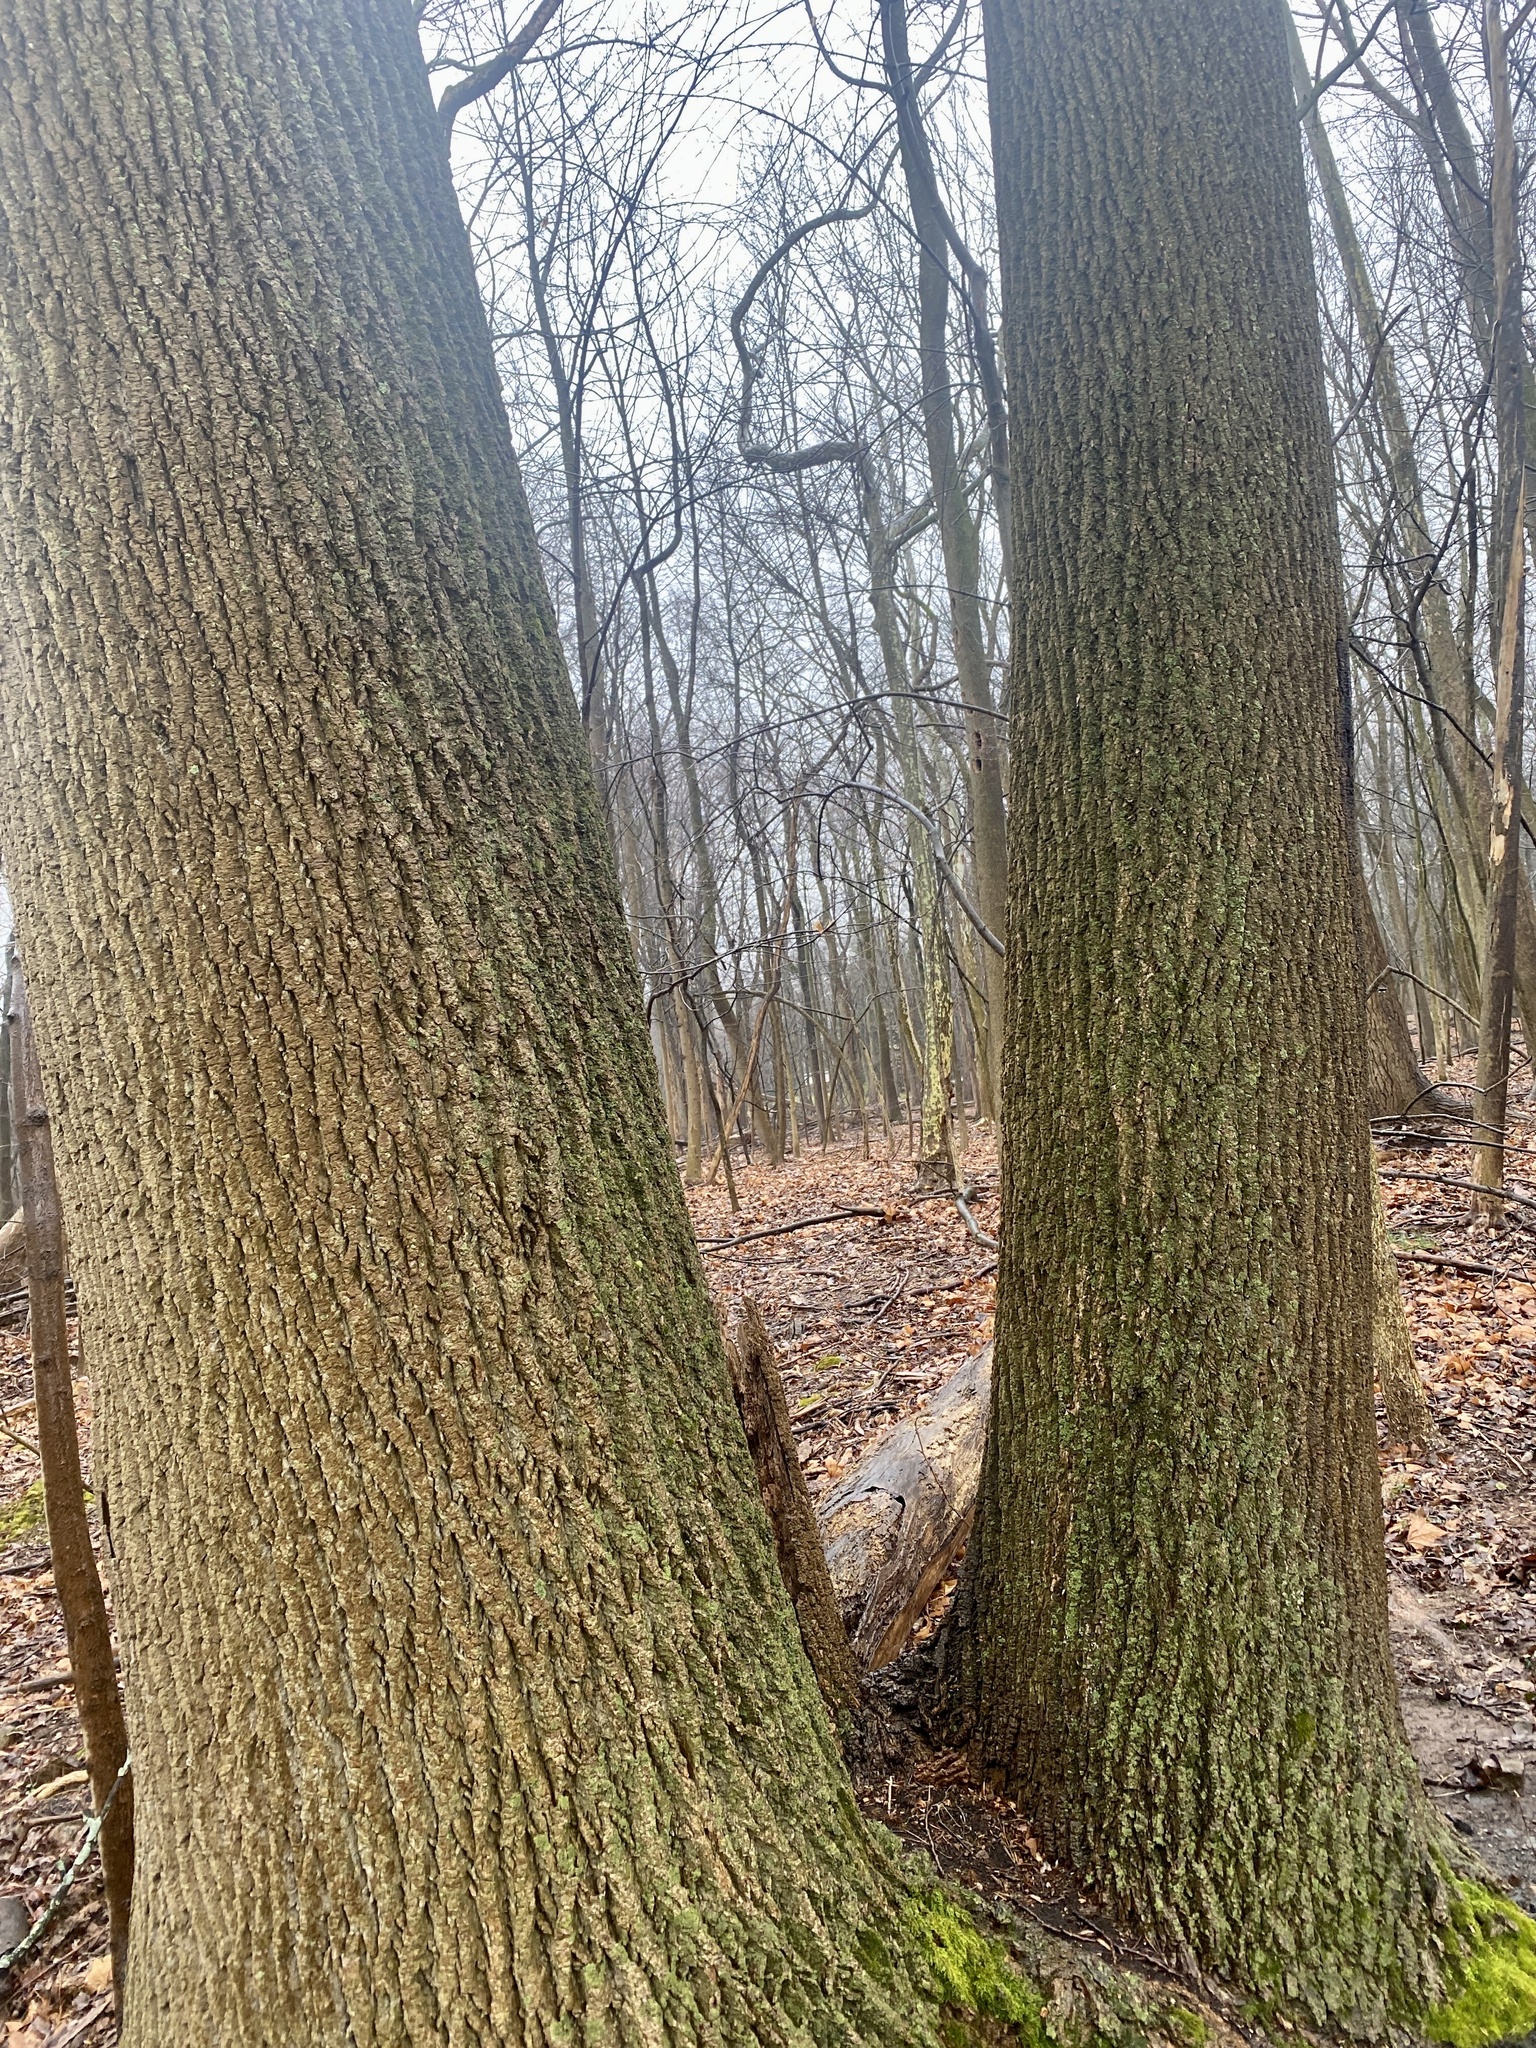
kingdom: Plantae
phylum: Tracheophyta
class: Magnoliopsida
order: Magnoliales
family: Magnoliaceae
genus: Liriodendron
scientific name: Liriodendron tulipifera
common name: Tulip tree
